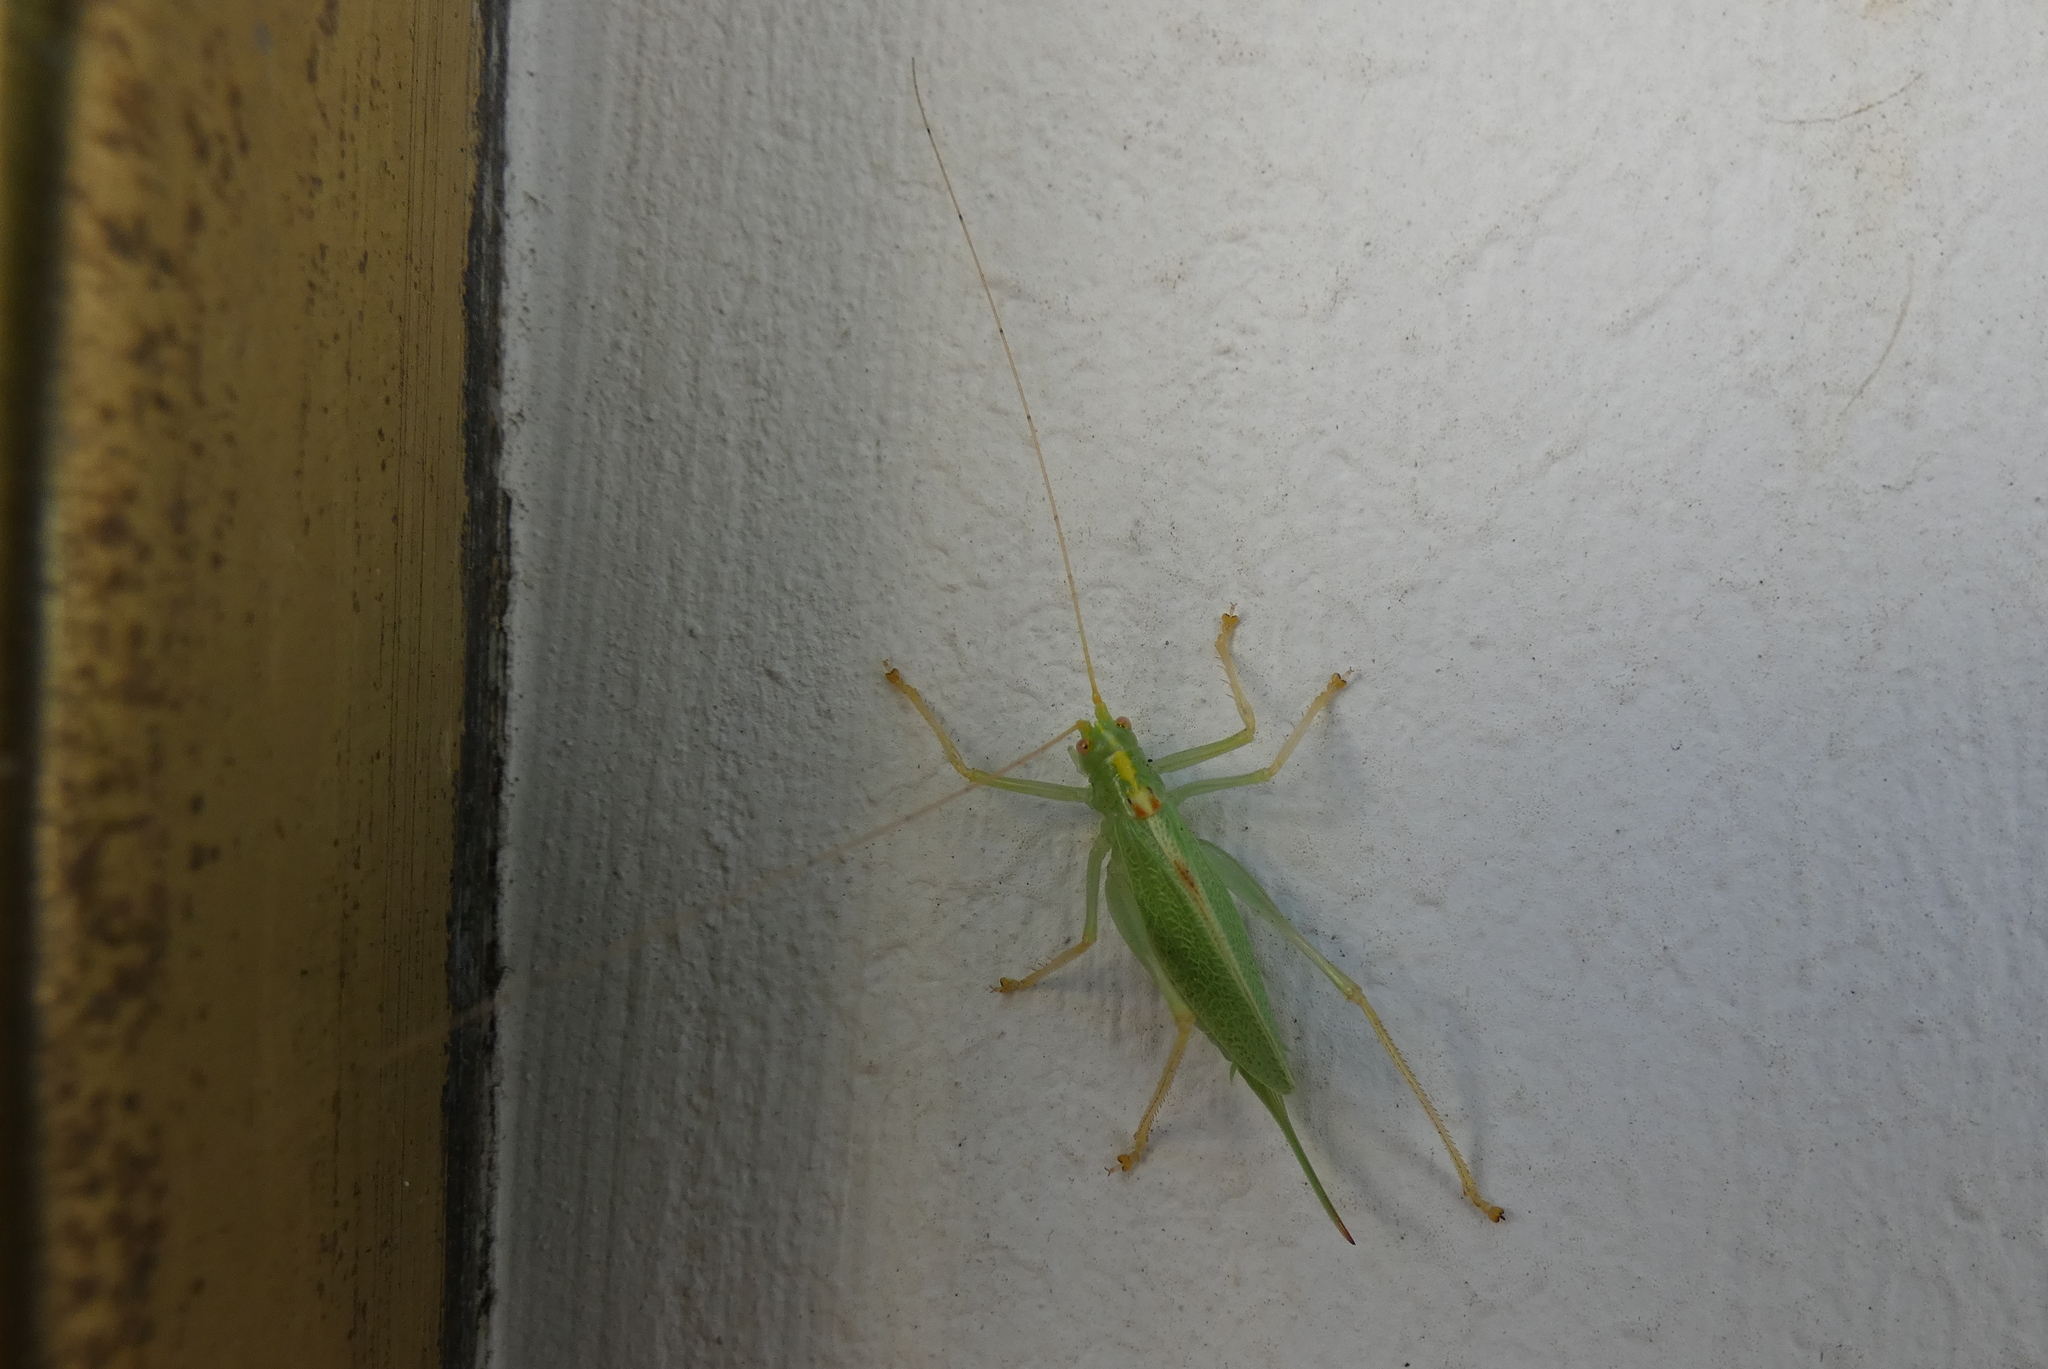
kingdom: Animalia
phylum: Arthropoda
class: Insecta
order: Orthoptera
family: Tettigoniidae
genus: Meconema
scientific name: Meconema thalassinum
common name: Oak bush-cricket
